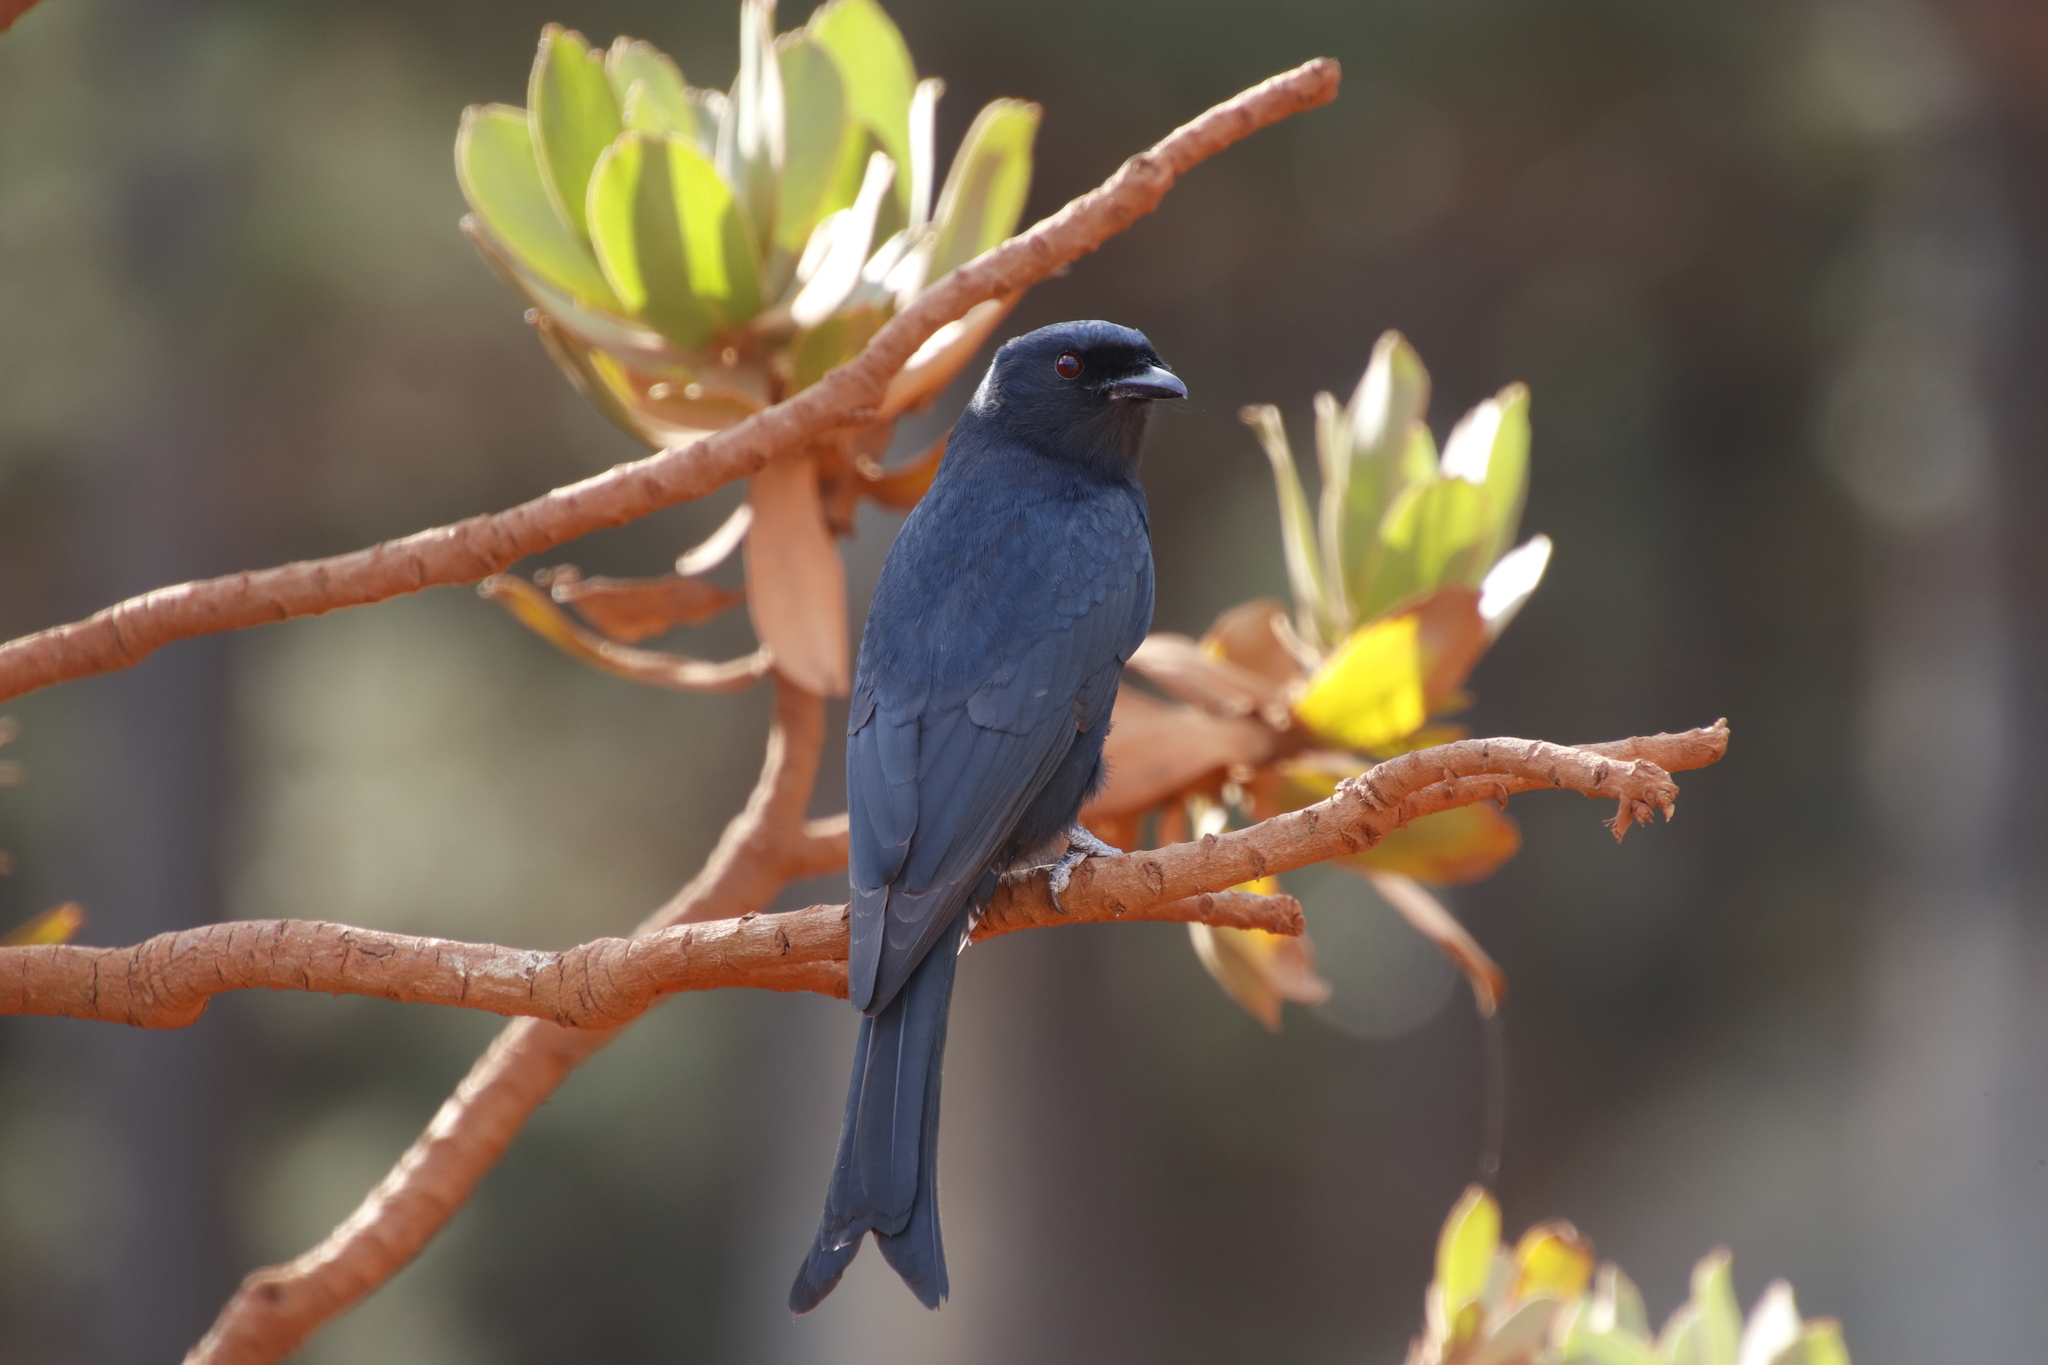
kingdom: Animalia
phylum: Chordata
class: Aves
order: Passeriformes
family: Dicruridae
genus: Dicrurus
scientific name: Dicrurus adsimilis
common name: Fork-tailed drongo
